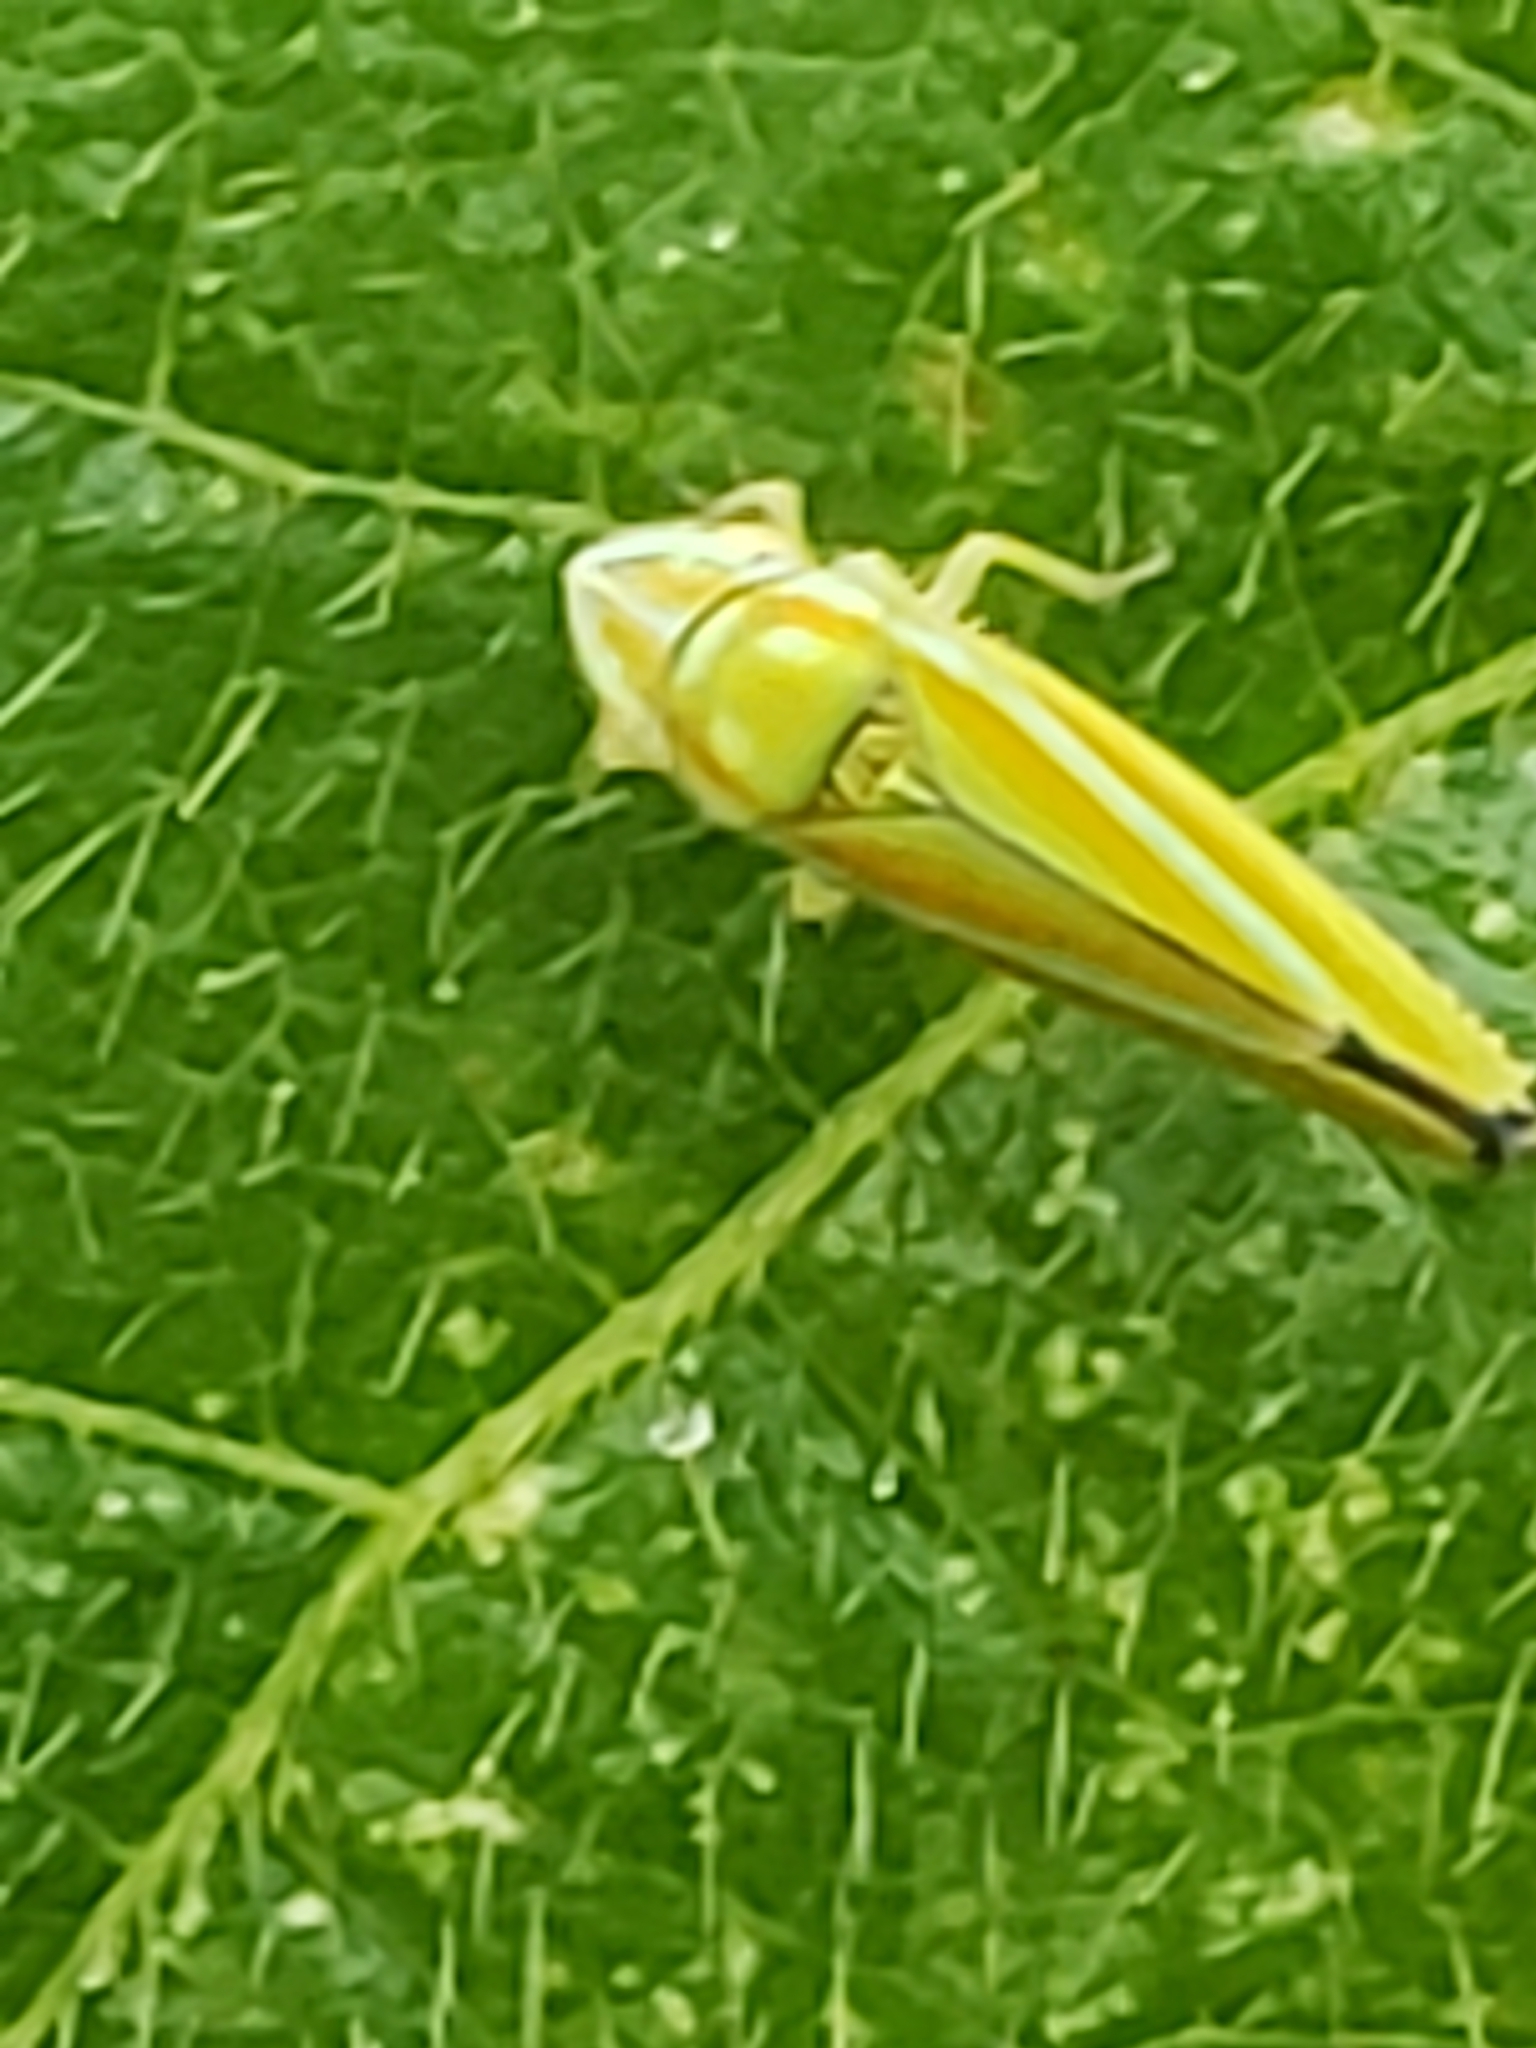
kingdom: Animalia
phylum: Arthropoda
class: Insecta
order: Hemiptera
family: Cicadellidae
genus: Graphocephala
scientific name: Graphocephala versuta
